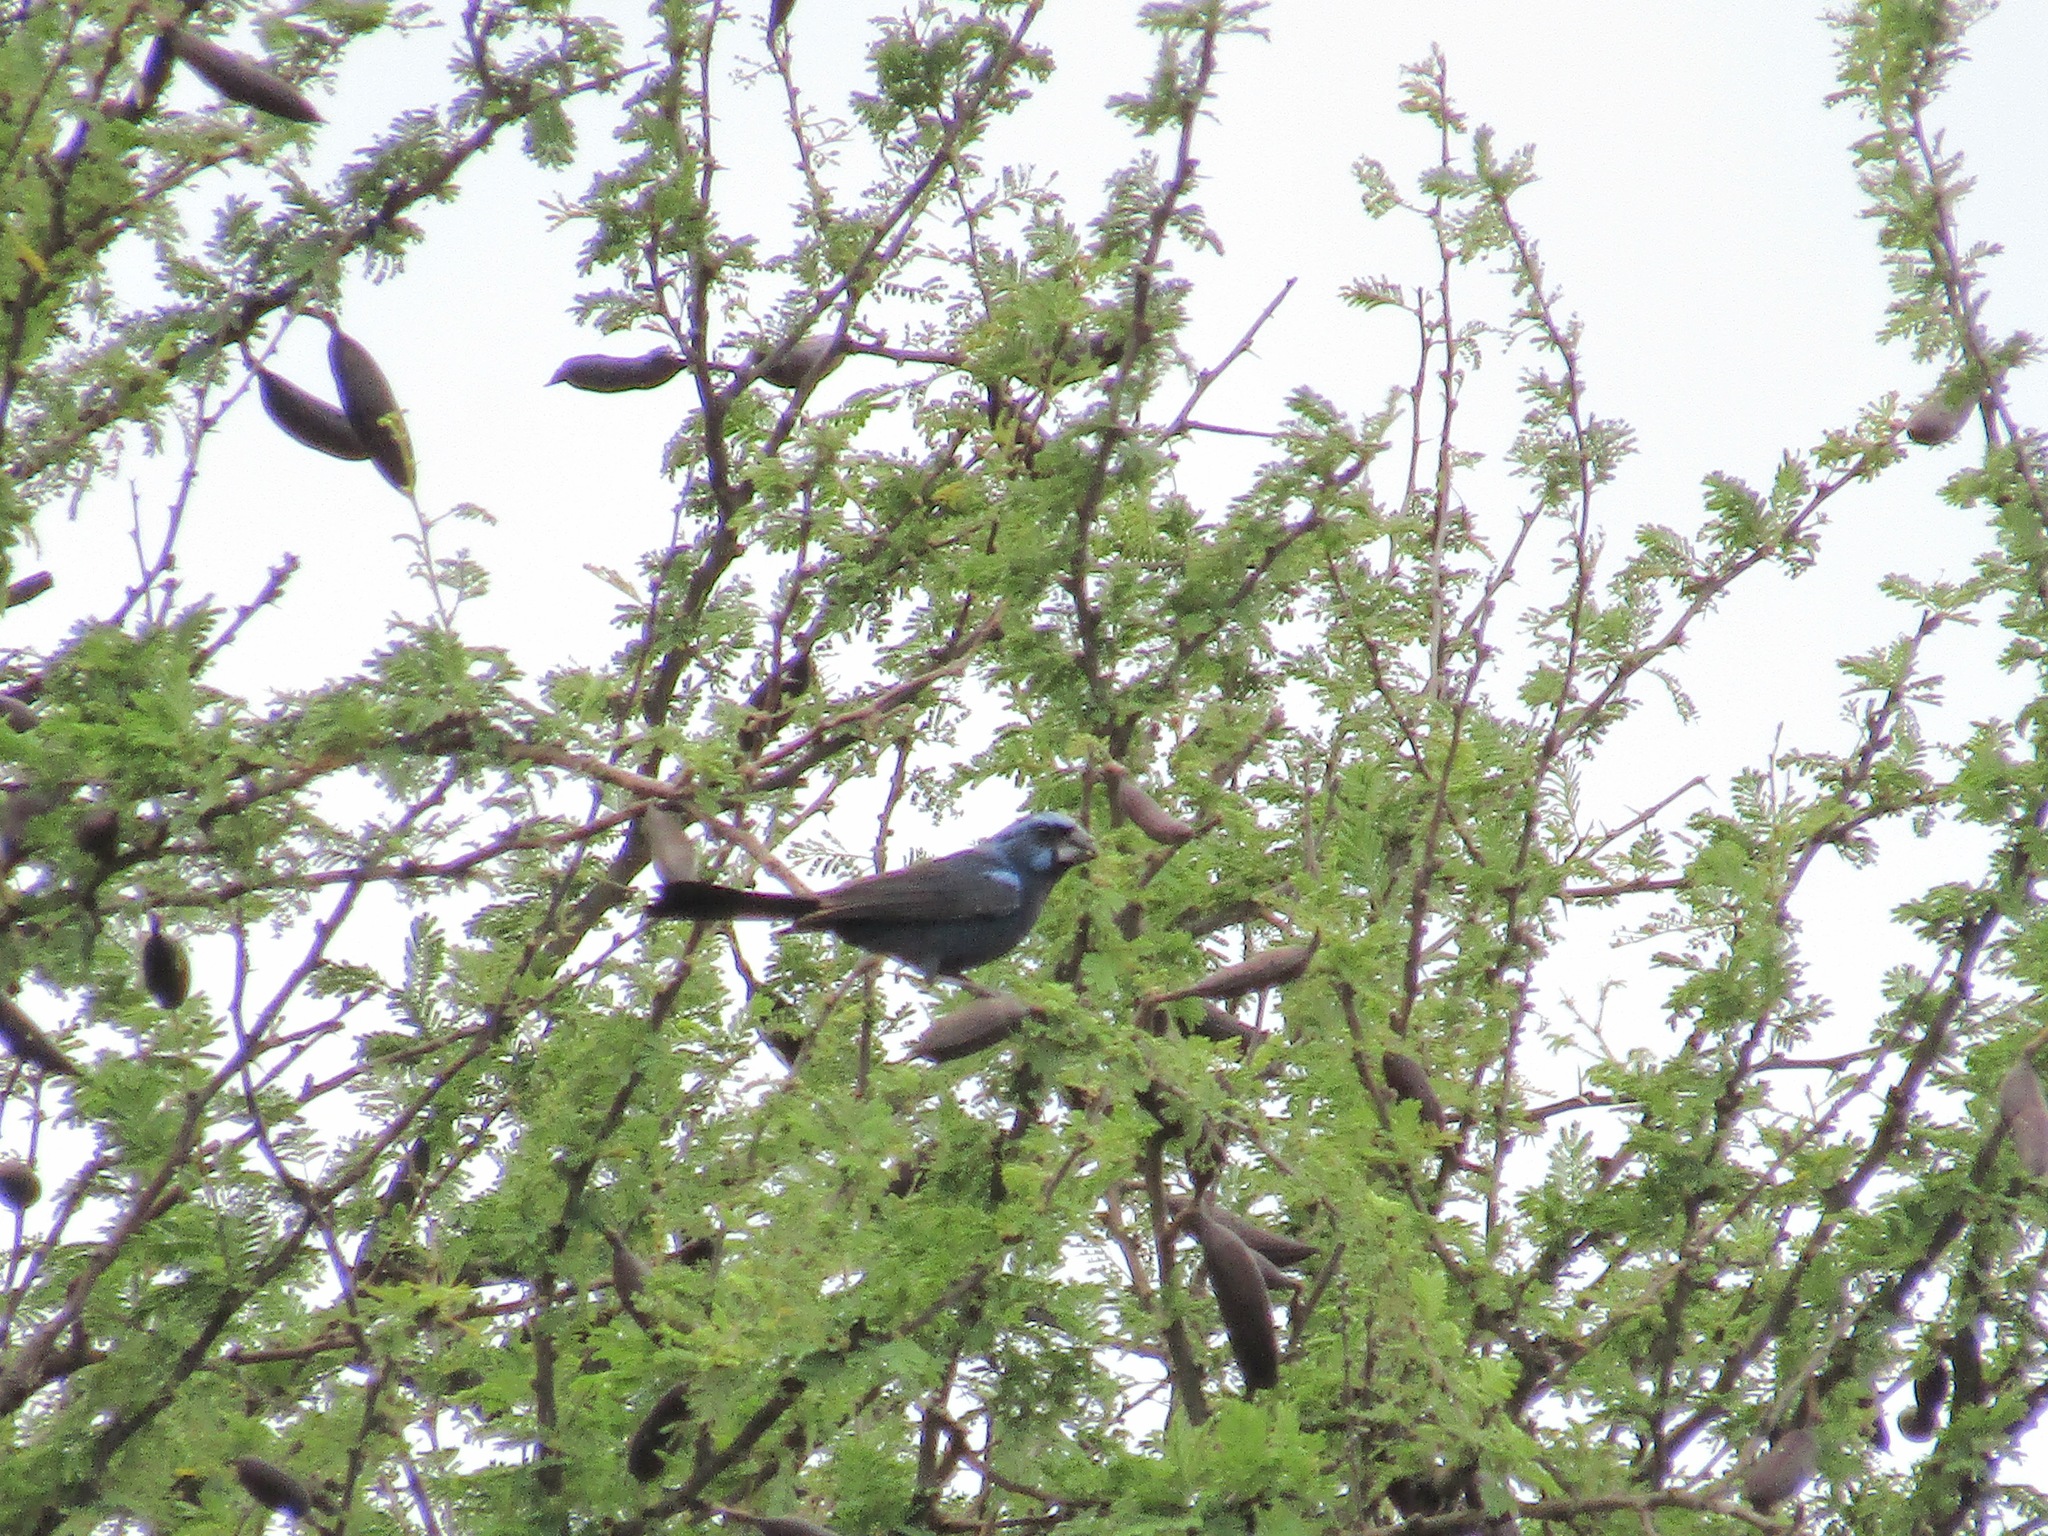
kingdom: Animalia
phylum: Chordata
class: Aves
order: Passeriformes
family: Cardinalidae
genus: Cyanoloxia
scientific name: Cyanoloxia brissonii
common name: Ultramarine grosbeak
